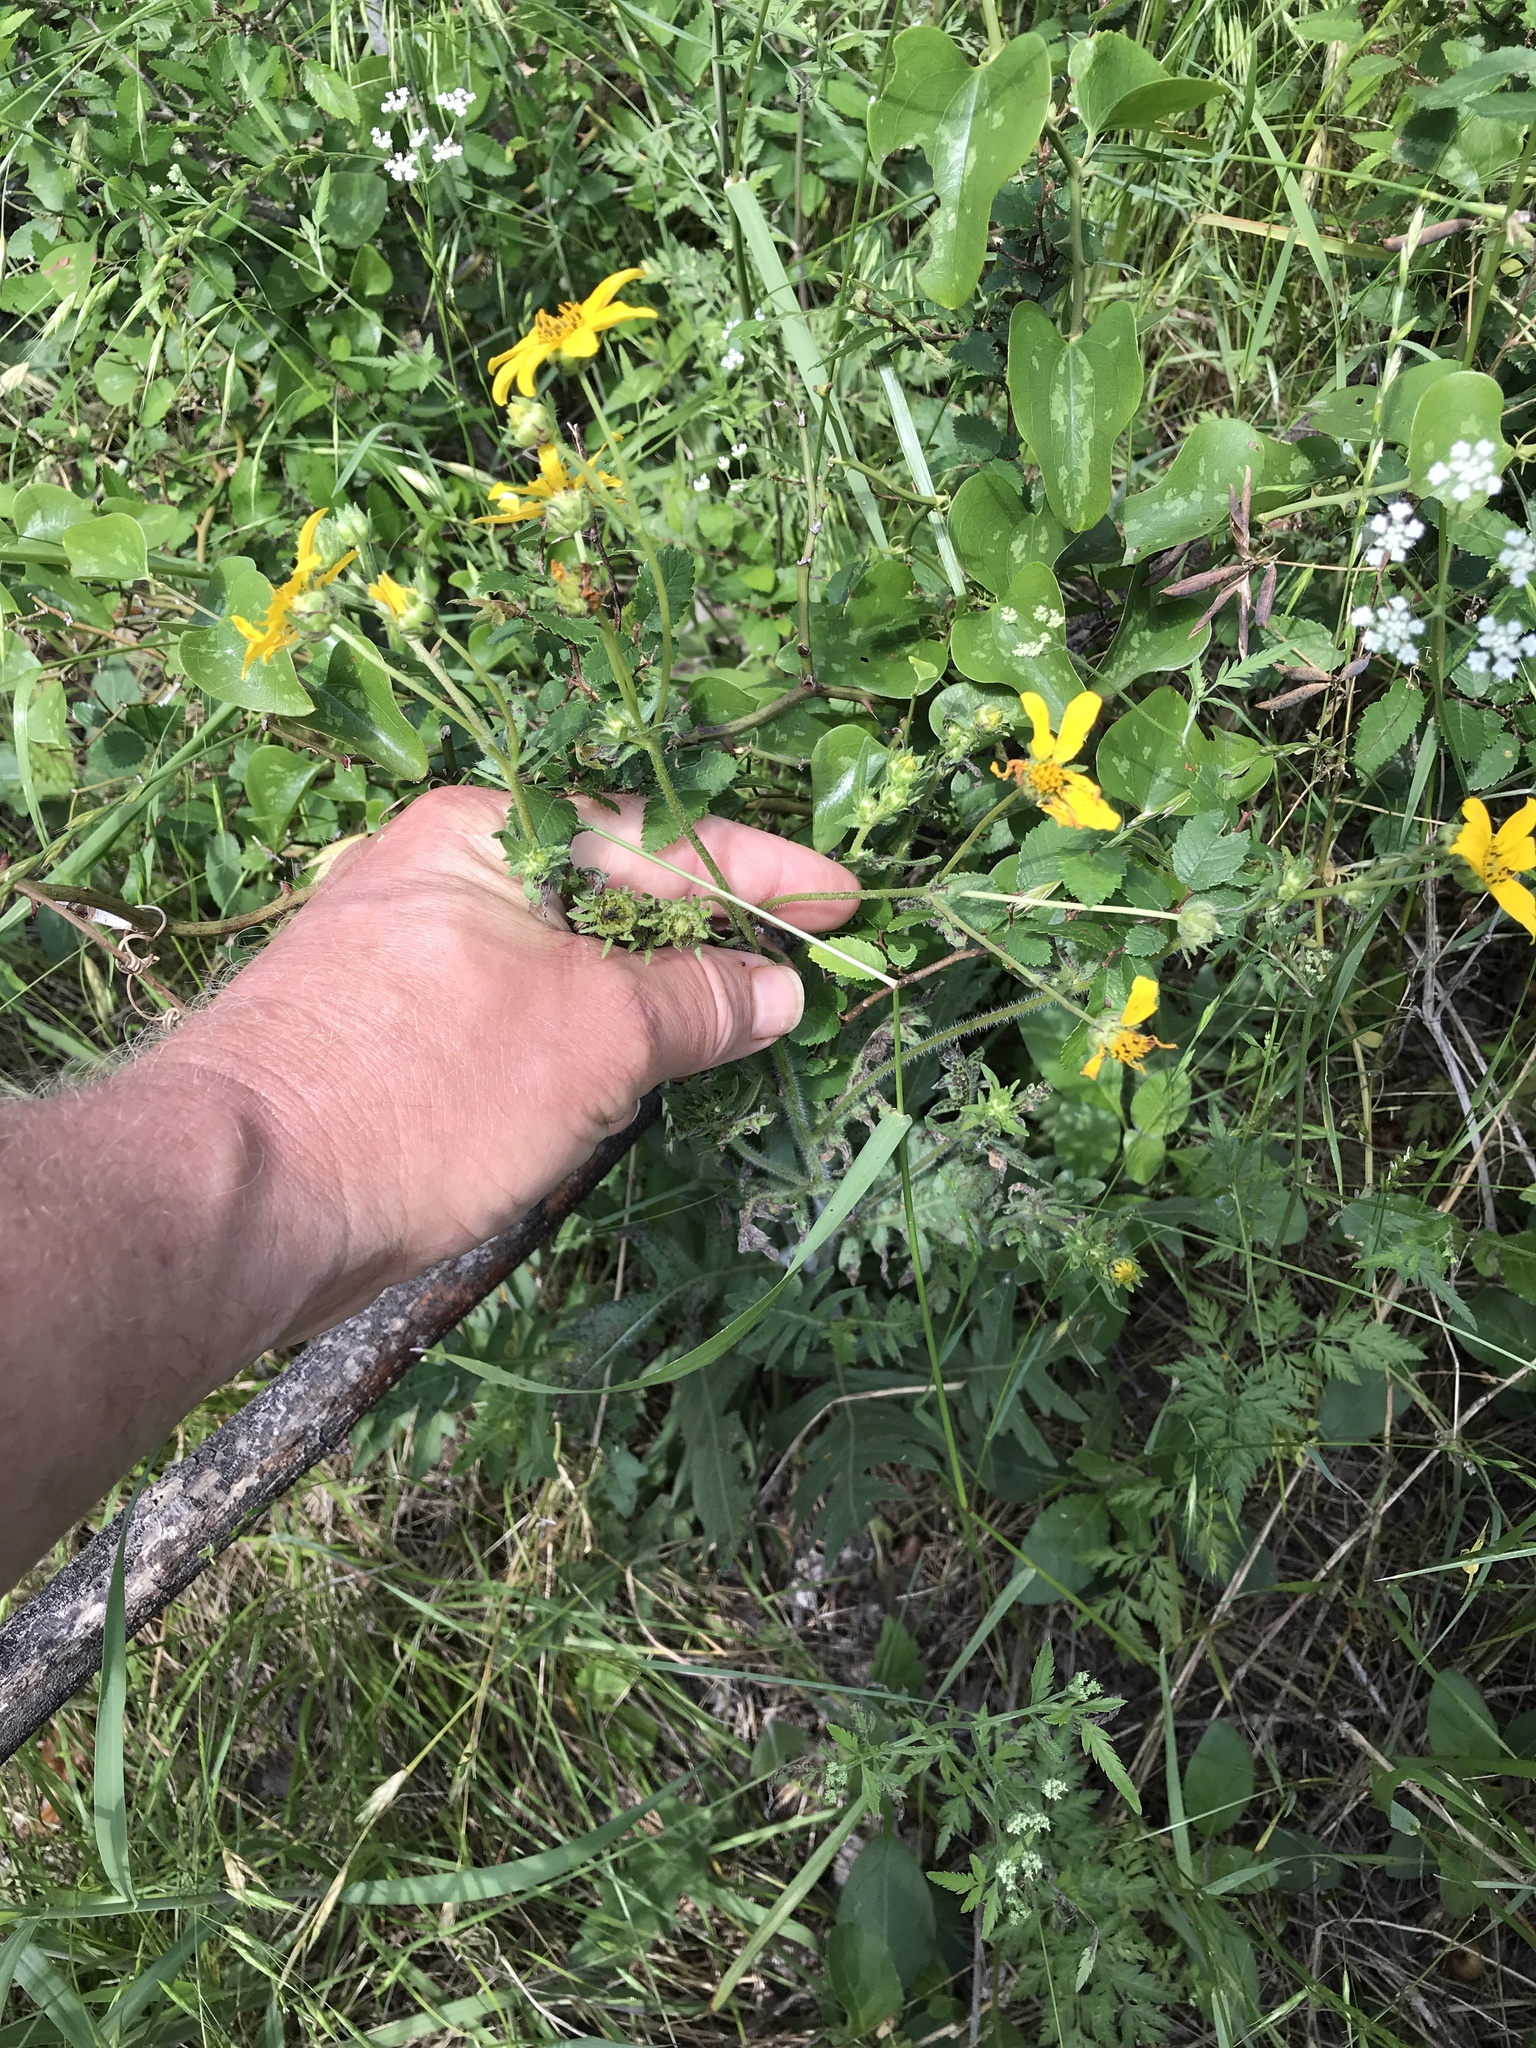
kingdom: Plantae
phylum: Tracheophyta
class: Magnoliopsida
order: Asterales
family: Asteraceae
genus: Engelmannia
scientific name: Engelmannia peristenia
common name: Engelmann's daisy
